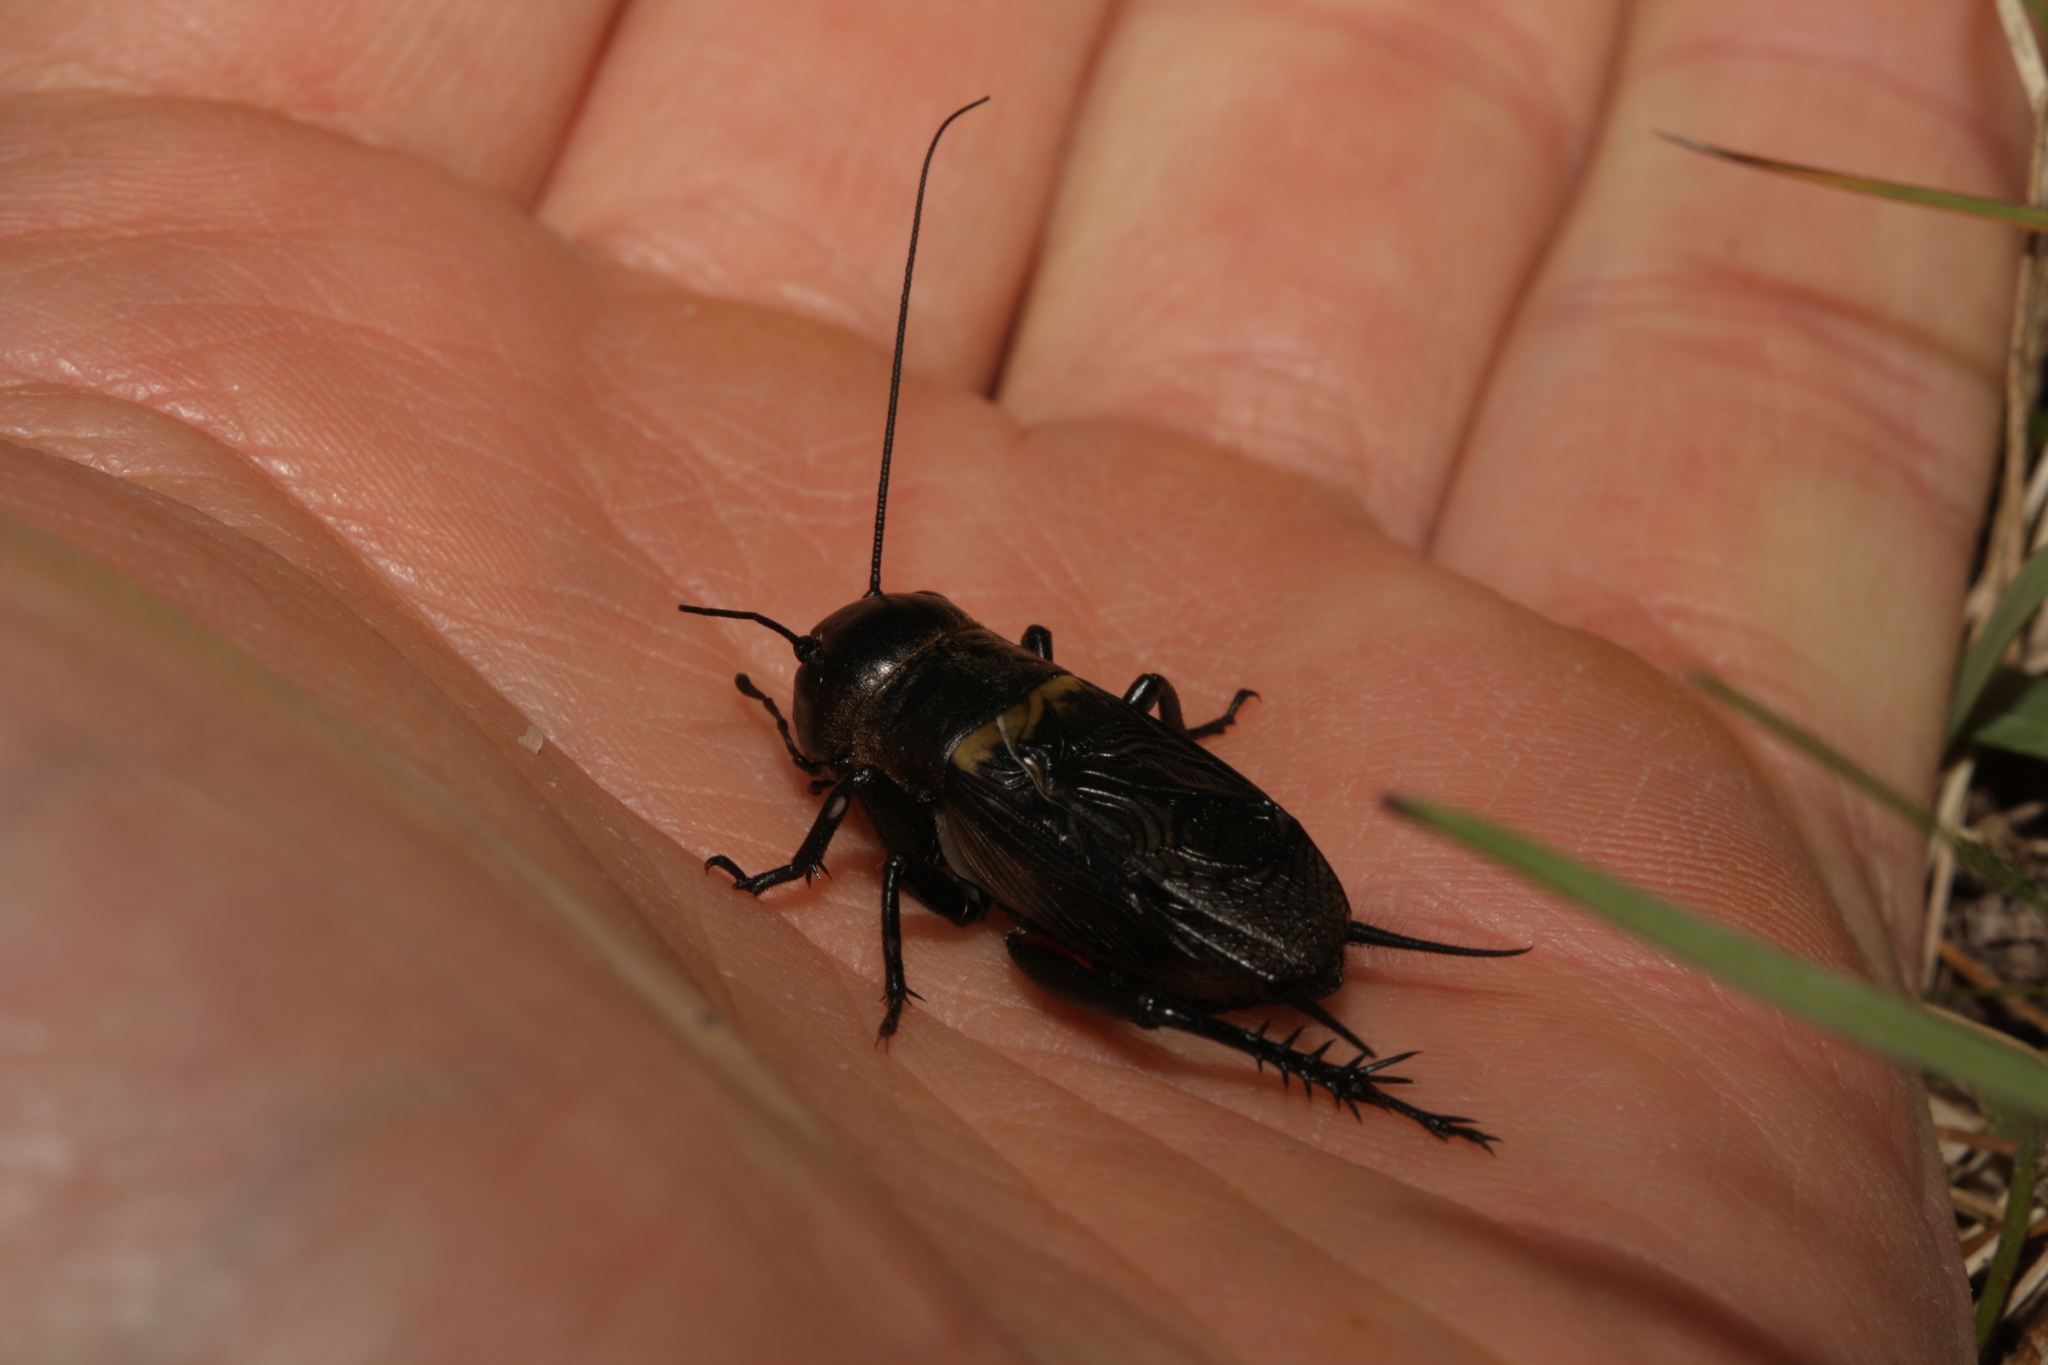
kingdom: Animalia
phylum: Arthropoda
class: Insecta
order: Orthoptera
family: Gryllidae
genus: Gryllus
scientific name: Gryllus campestris
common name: Field cricket
